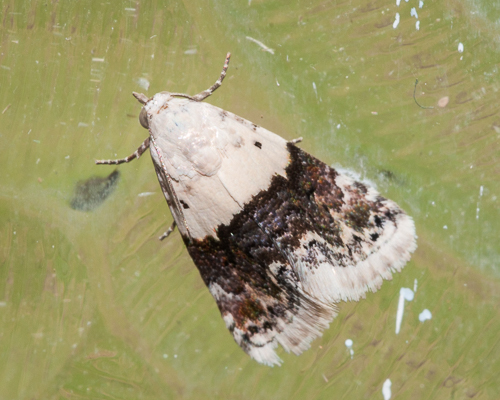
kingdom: Animalia
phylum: Arthropoda
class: Insecta
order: Lepidoptera
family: Noctuidae
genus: Eublemma
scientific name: Eublemma bipartita
